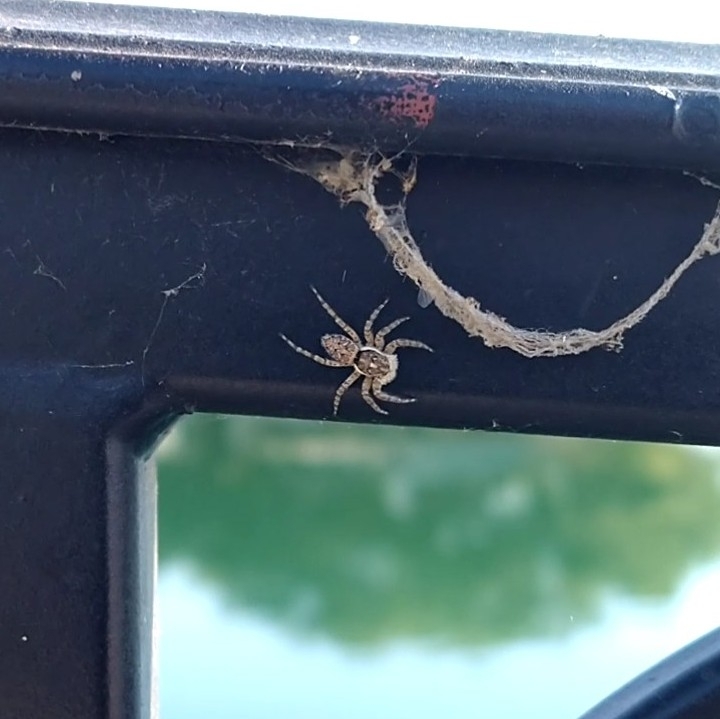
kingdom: Animalia
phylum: Arthropoda
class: Arachnida
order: Araneae
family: Salticidae
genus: Menemerus
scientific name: Menemerus semilimbatus
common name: Jumping spider
